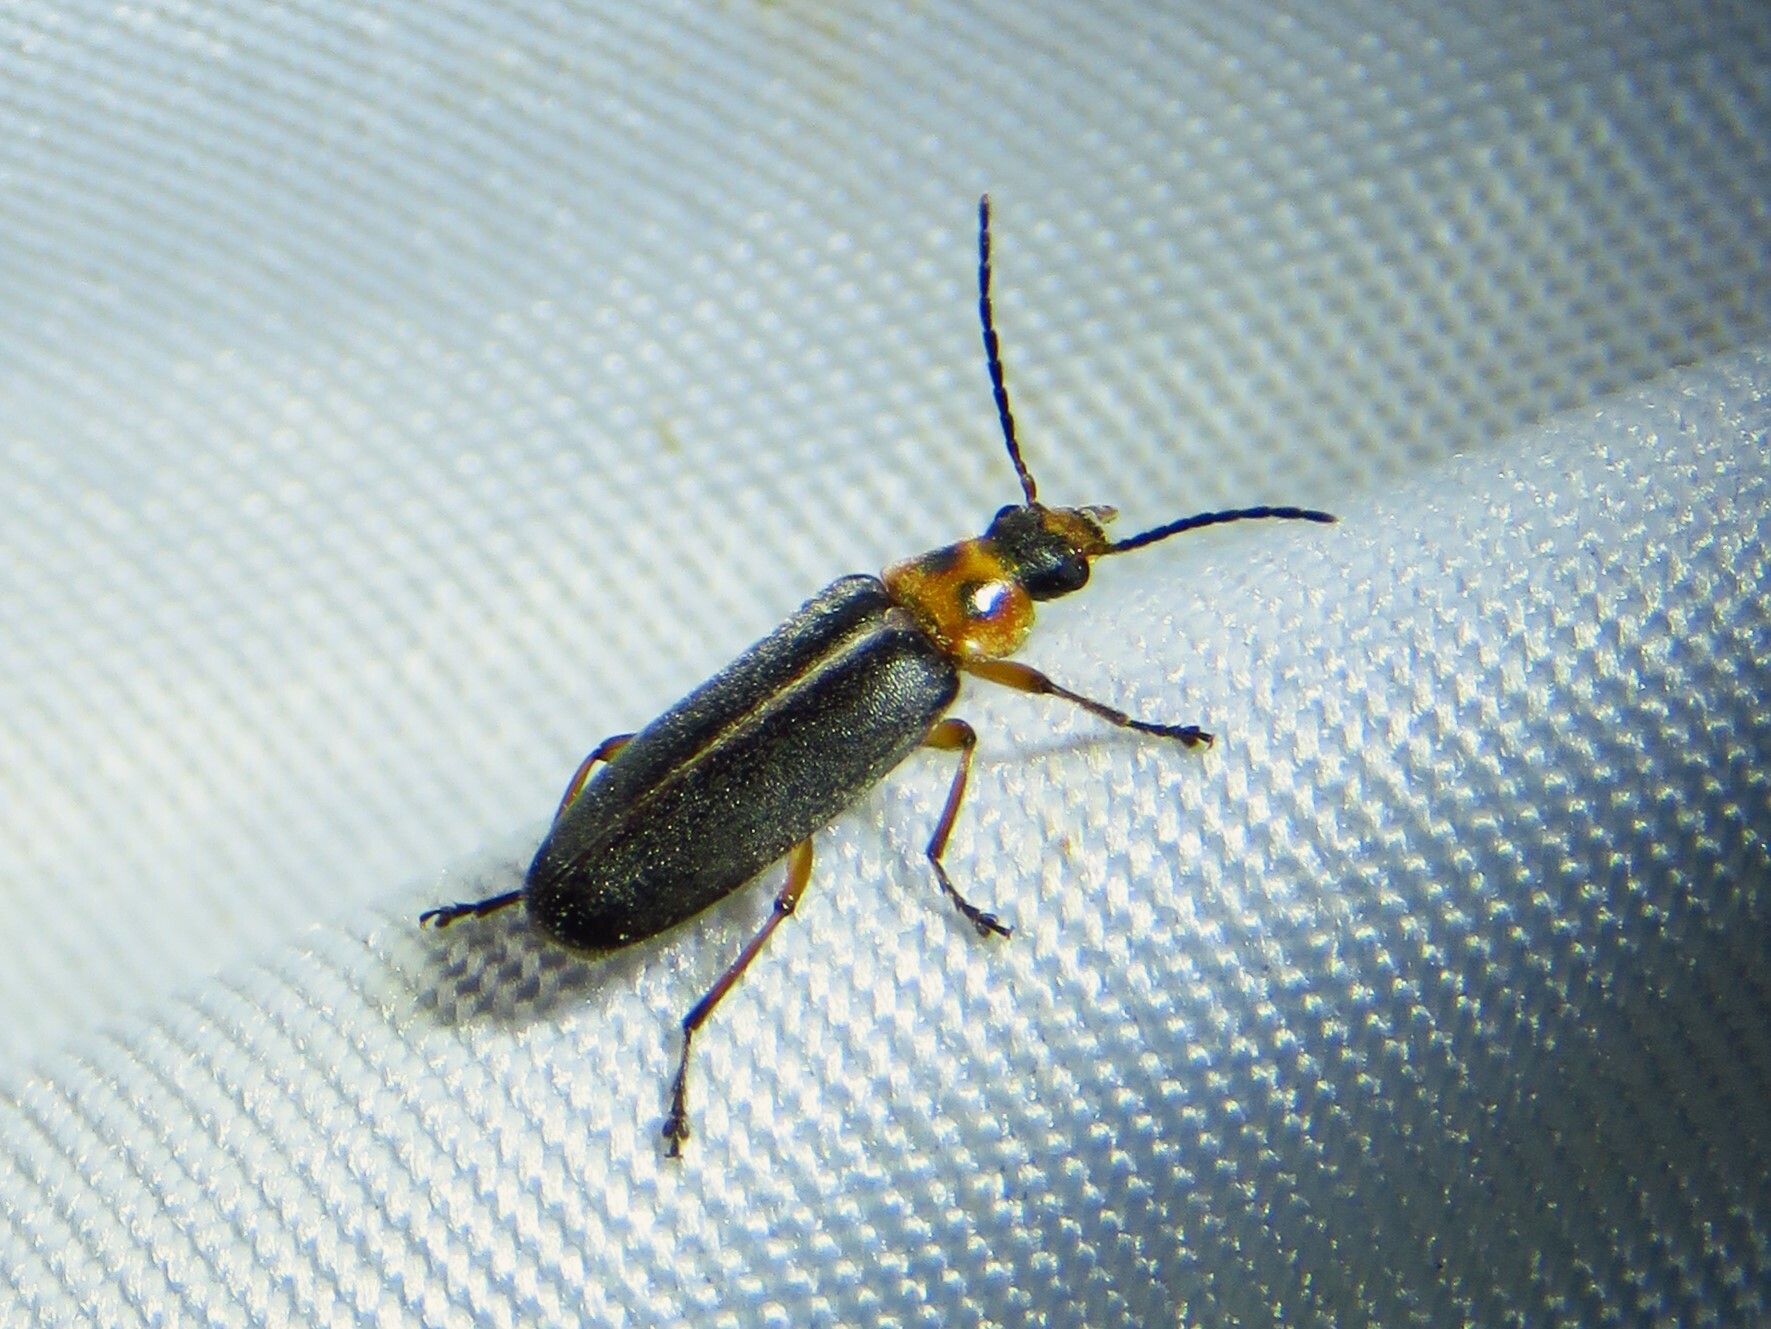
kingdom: Animalia
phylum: Arthropoda
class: Insecta
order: Coleoptera
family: Melandryidae
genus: Osphya
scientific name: Osphya varians
